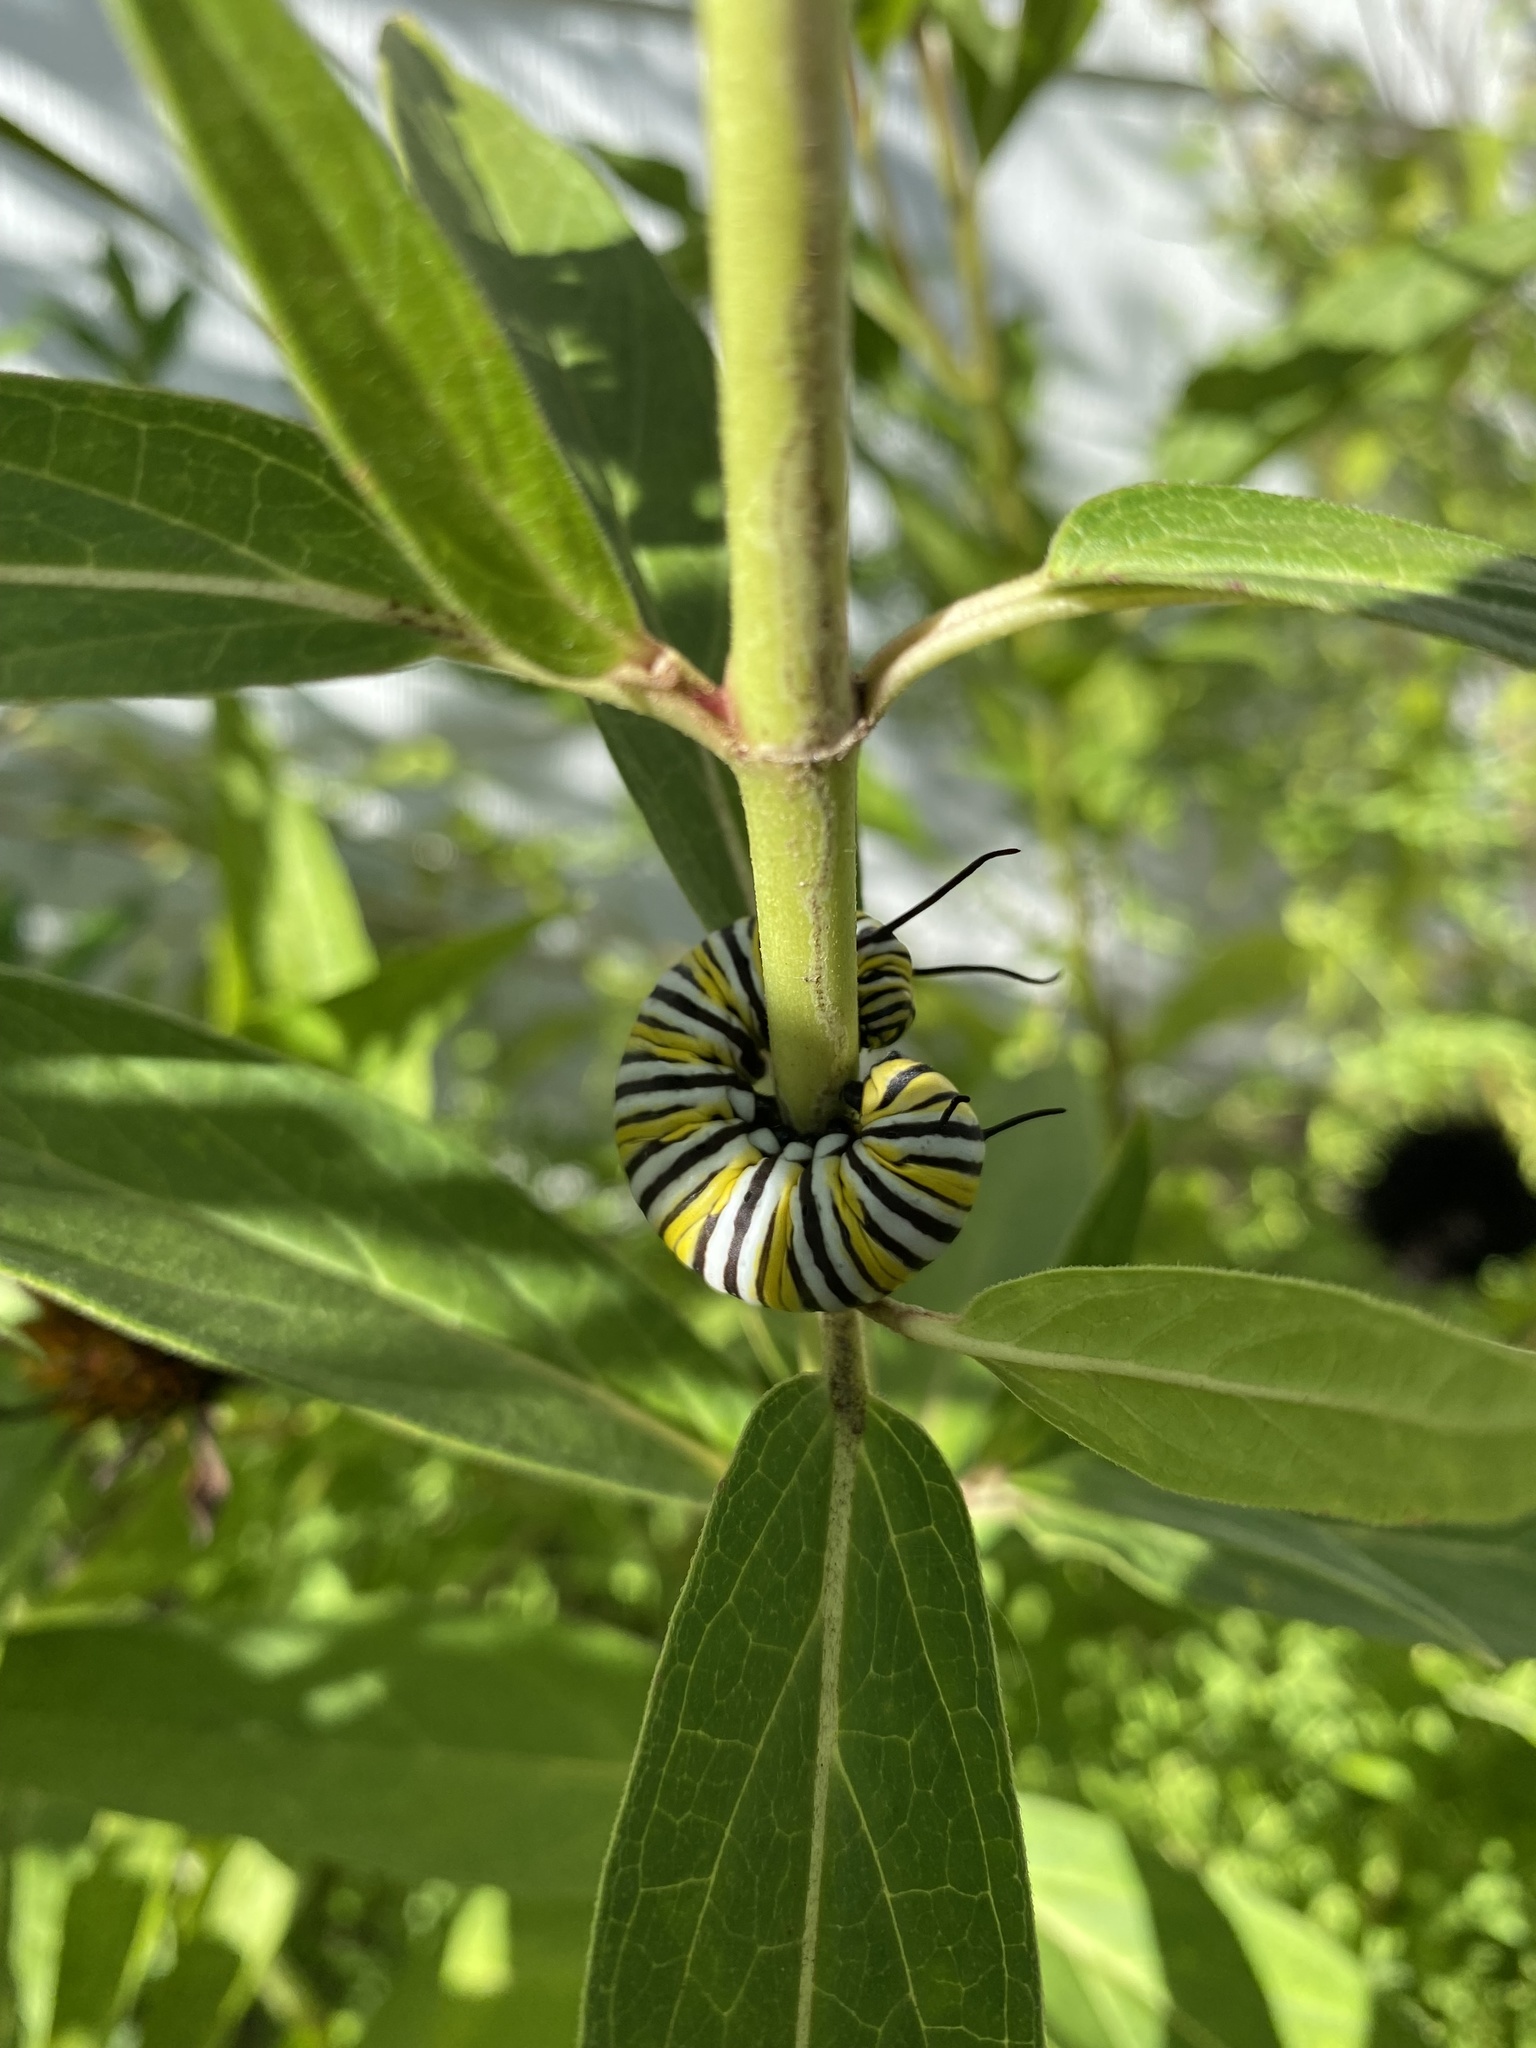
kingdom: Animalia
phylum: Arthropoda
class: Insecta
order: Lepidoptera
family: Nymphalidae
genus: Danaus
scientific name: Danaus plexippus
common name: Monarch
